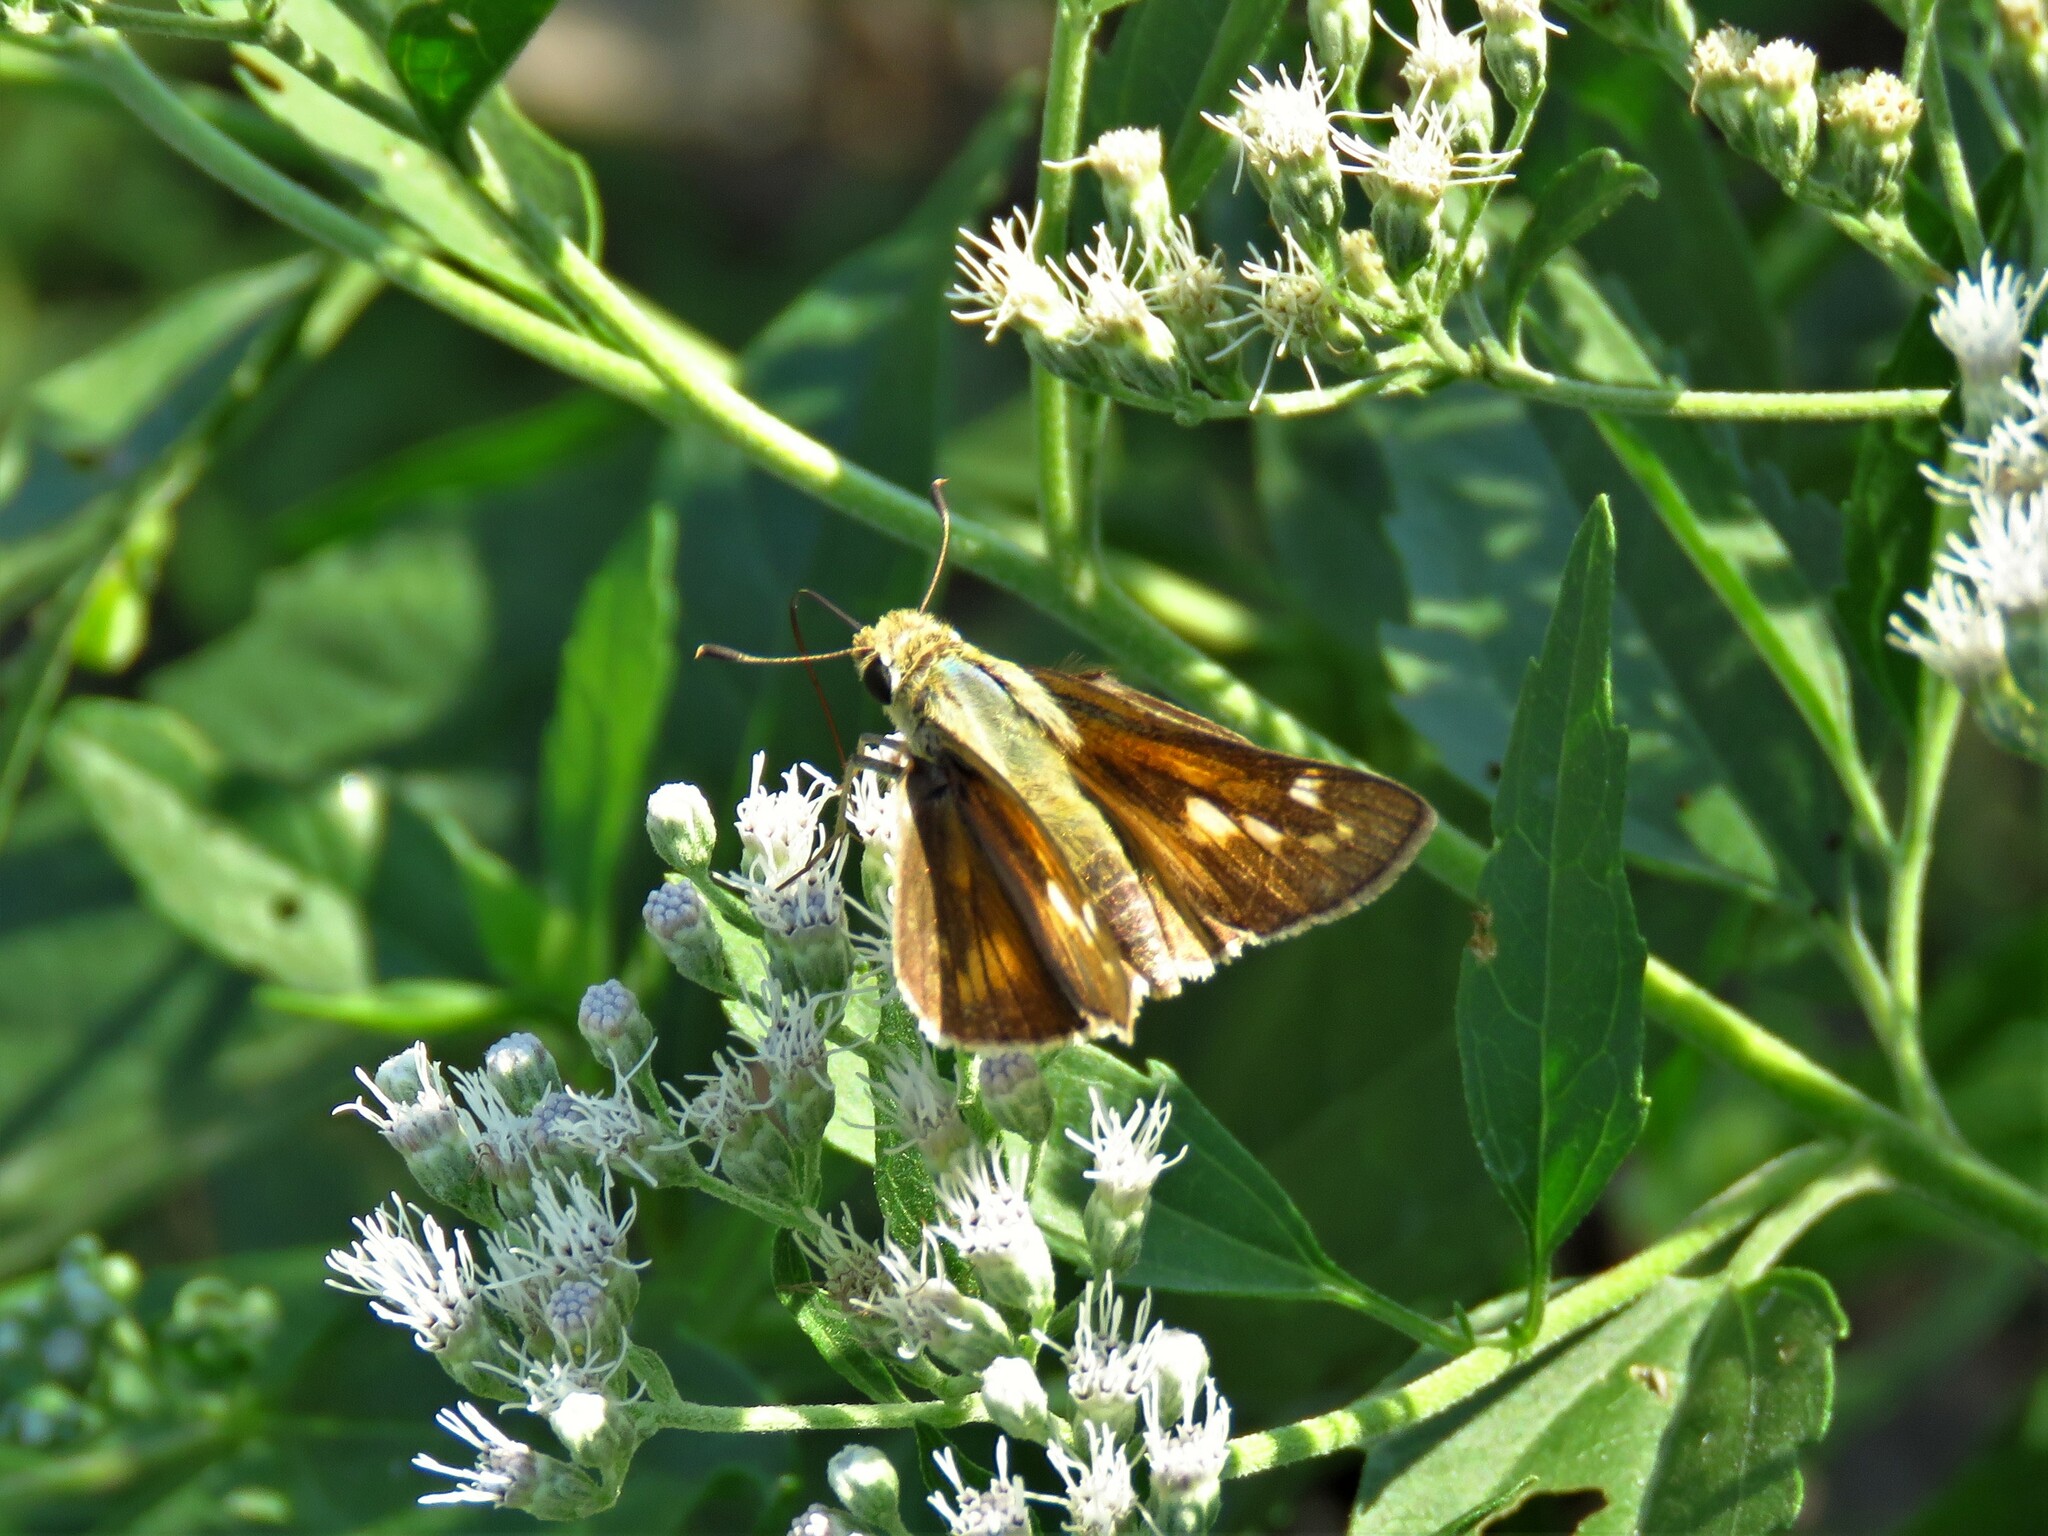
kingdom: Animalia
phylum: Arthropoda
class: Insecta
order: Lepidoptera
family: Hesperiidae
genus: Atalopedes
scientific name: Atalopedes
